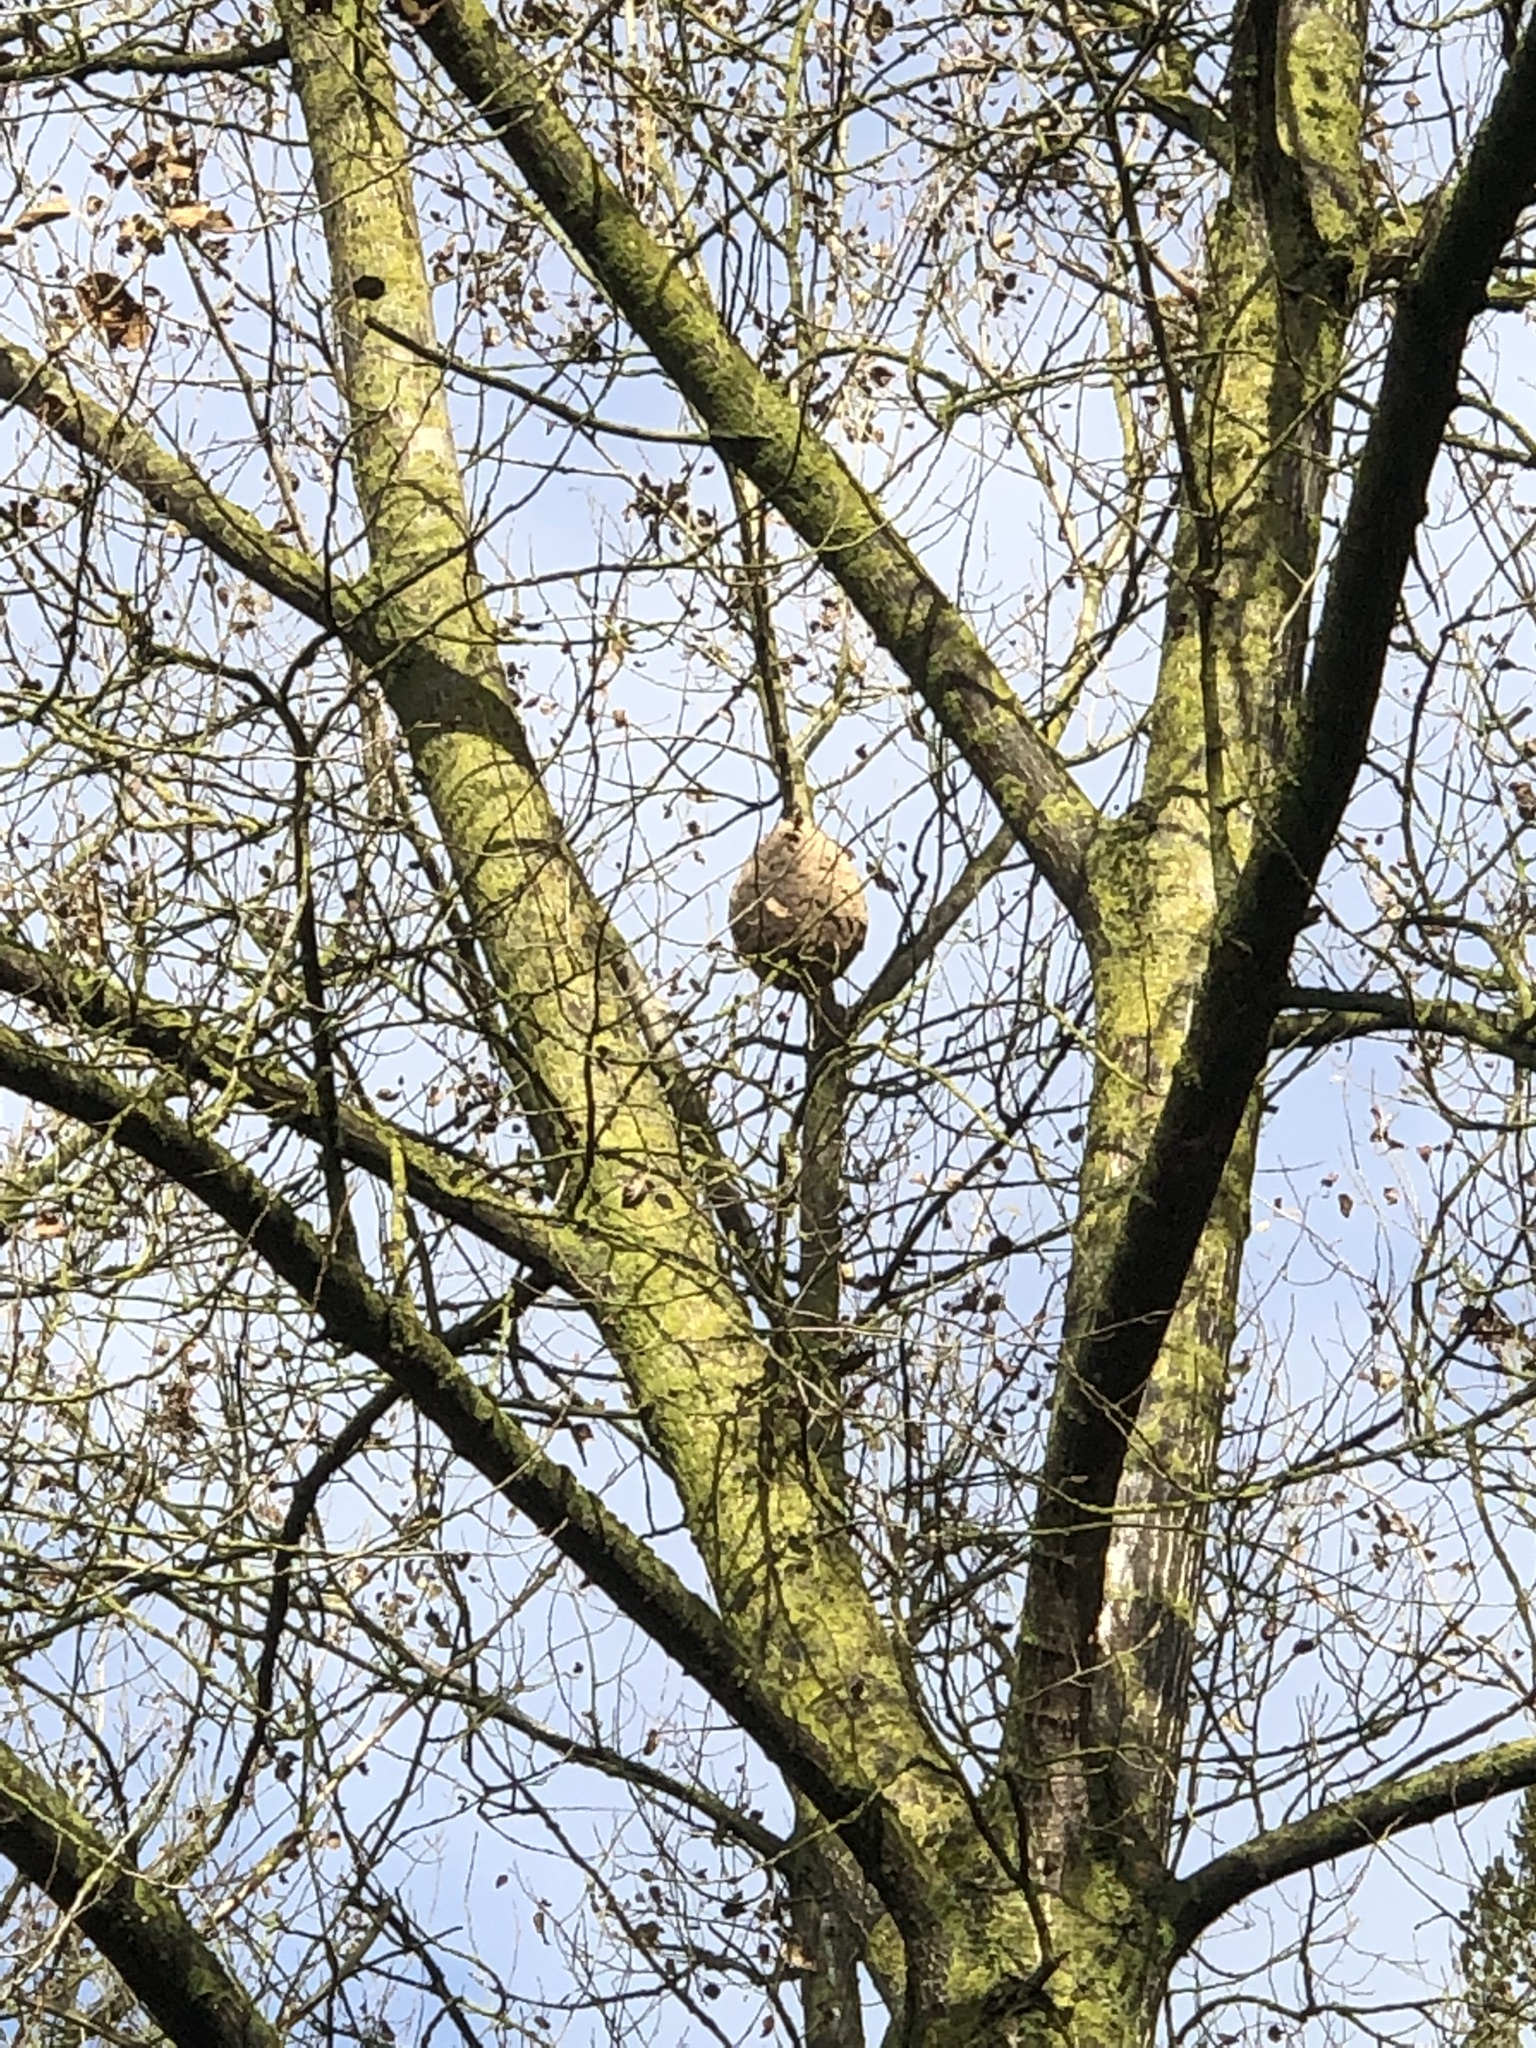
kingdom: Animalia
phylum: Arthropoda
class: Insecta
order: Hymenoptera
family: Vespidae
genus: Vespa
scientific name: Vespa velutina
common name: Asian hornet
